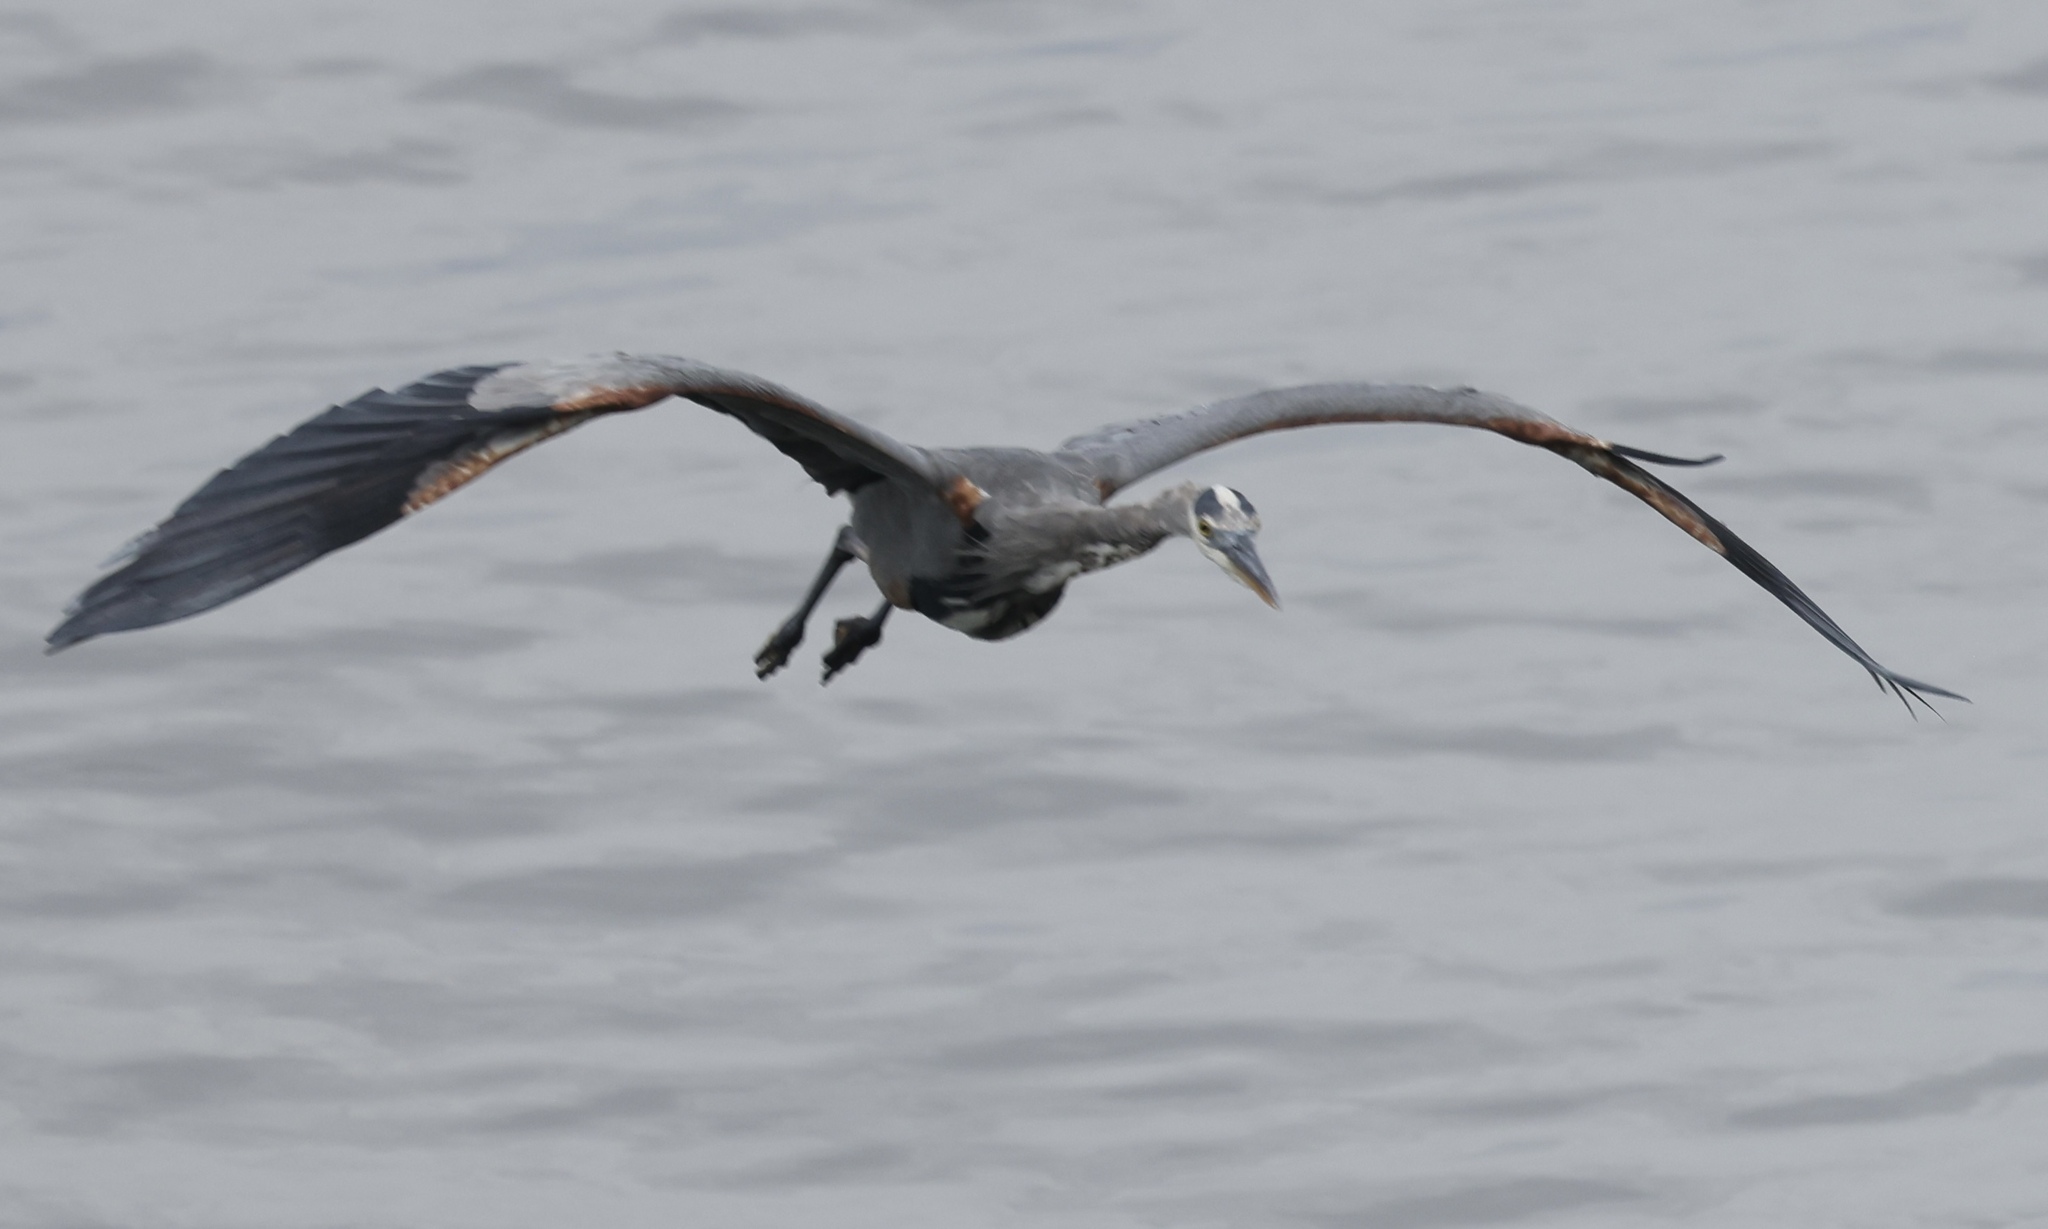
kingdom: Animalia
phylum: Chordata
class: Aves
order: Pelecaniformes
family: Ardeidae
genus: Ardea
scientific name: Ardea herodias
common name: Great blue heron
